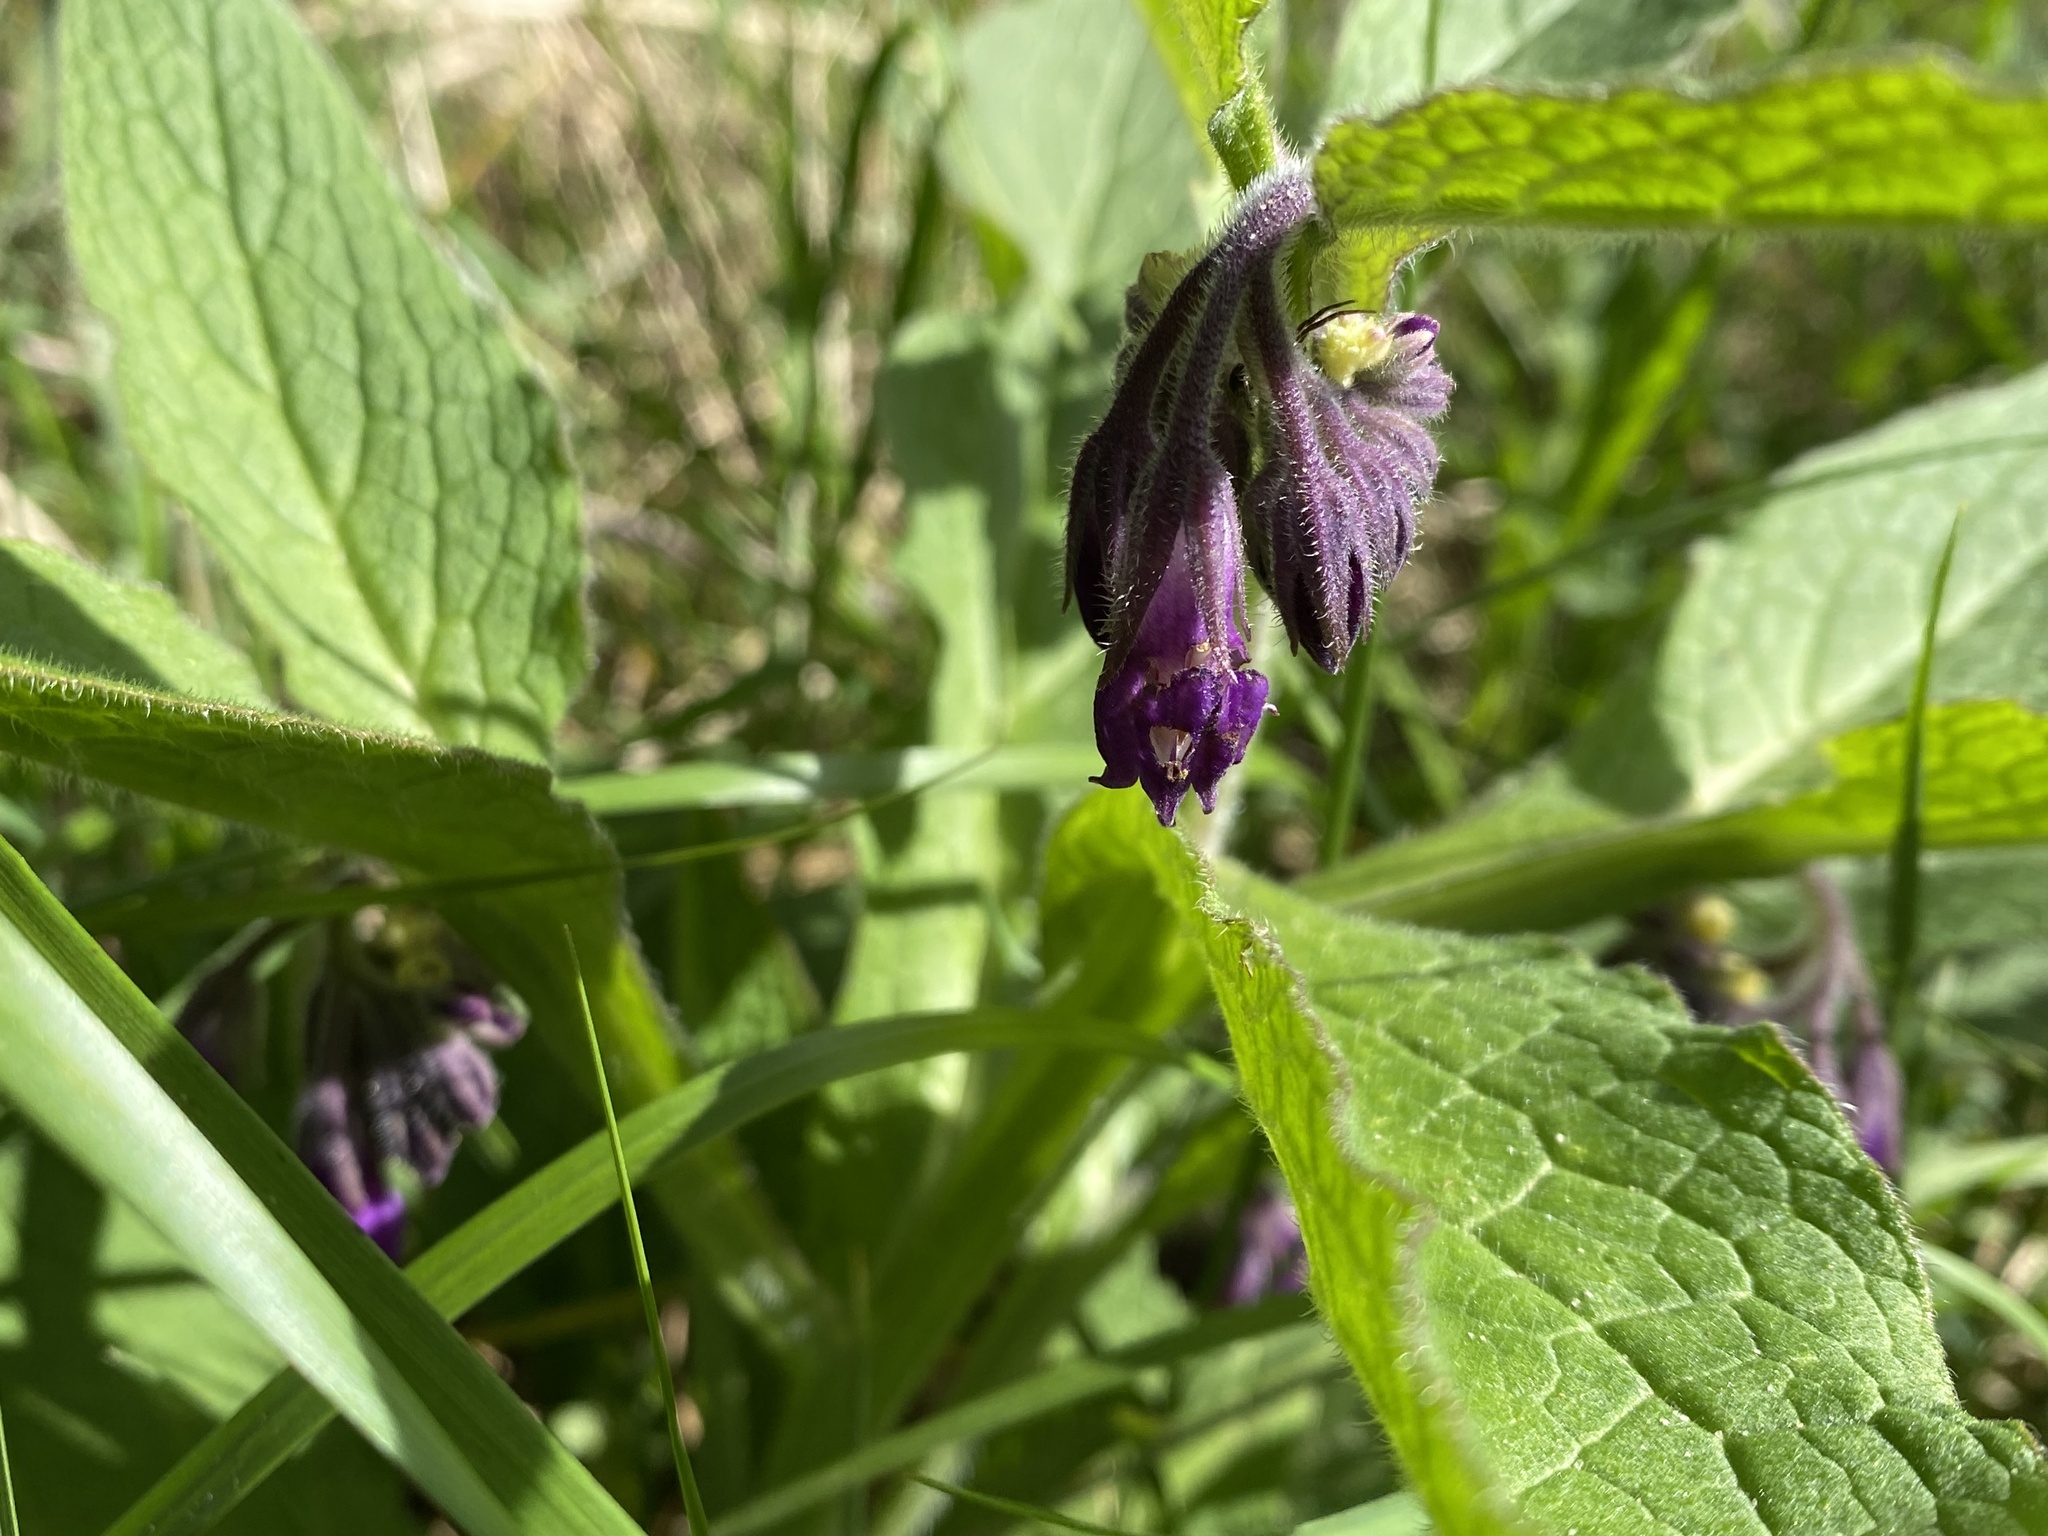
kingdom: Plantae
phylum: Tracheophyta
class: Magnoliopsida
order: Boraginales
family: Boraginaceae
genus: Symphytum
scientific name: Symphytum officinale
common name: Common comfrey
